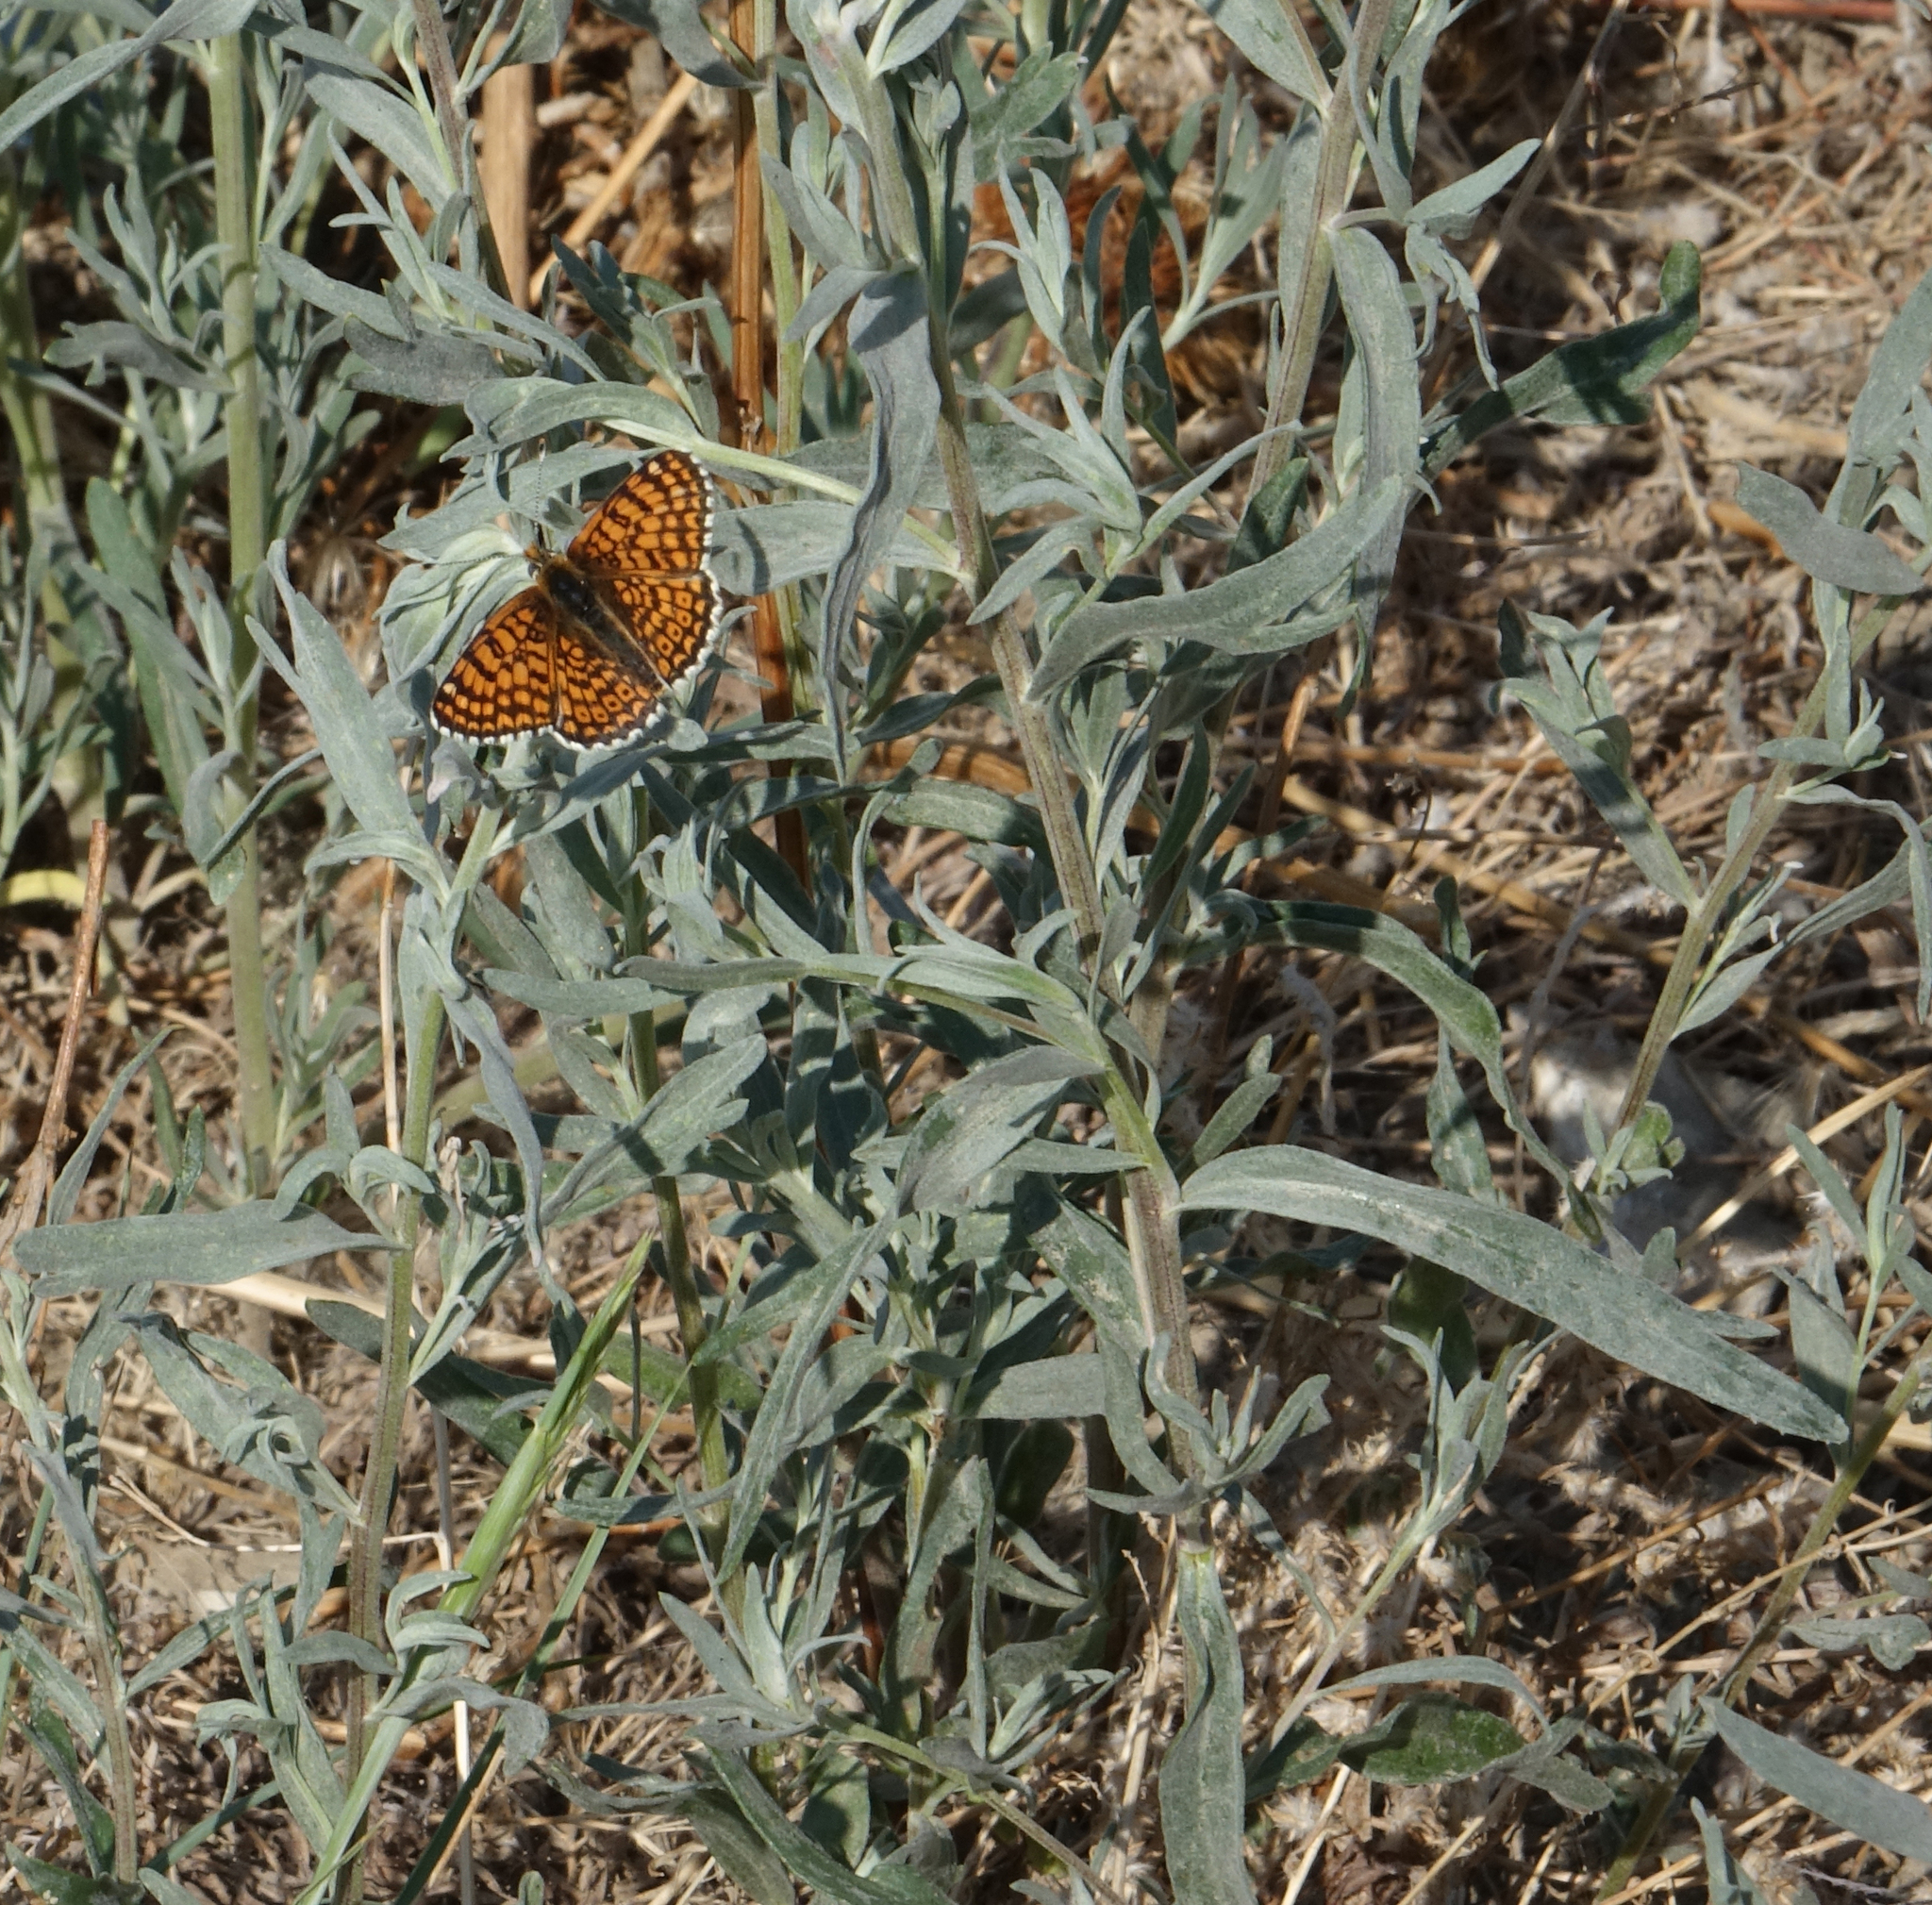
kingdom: Plantae
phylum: Tracheophyta
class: Magnoliopsida
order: Asterales
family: Asteraceae
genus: Artemisia
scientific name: Artemisia glauca
